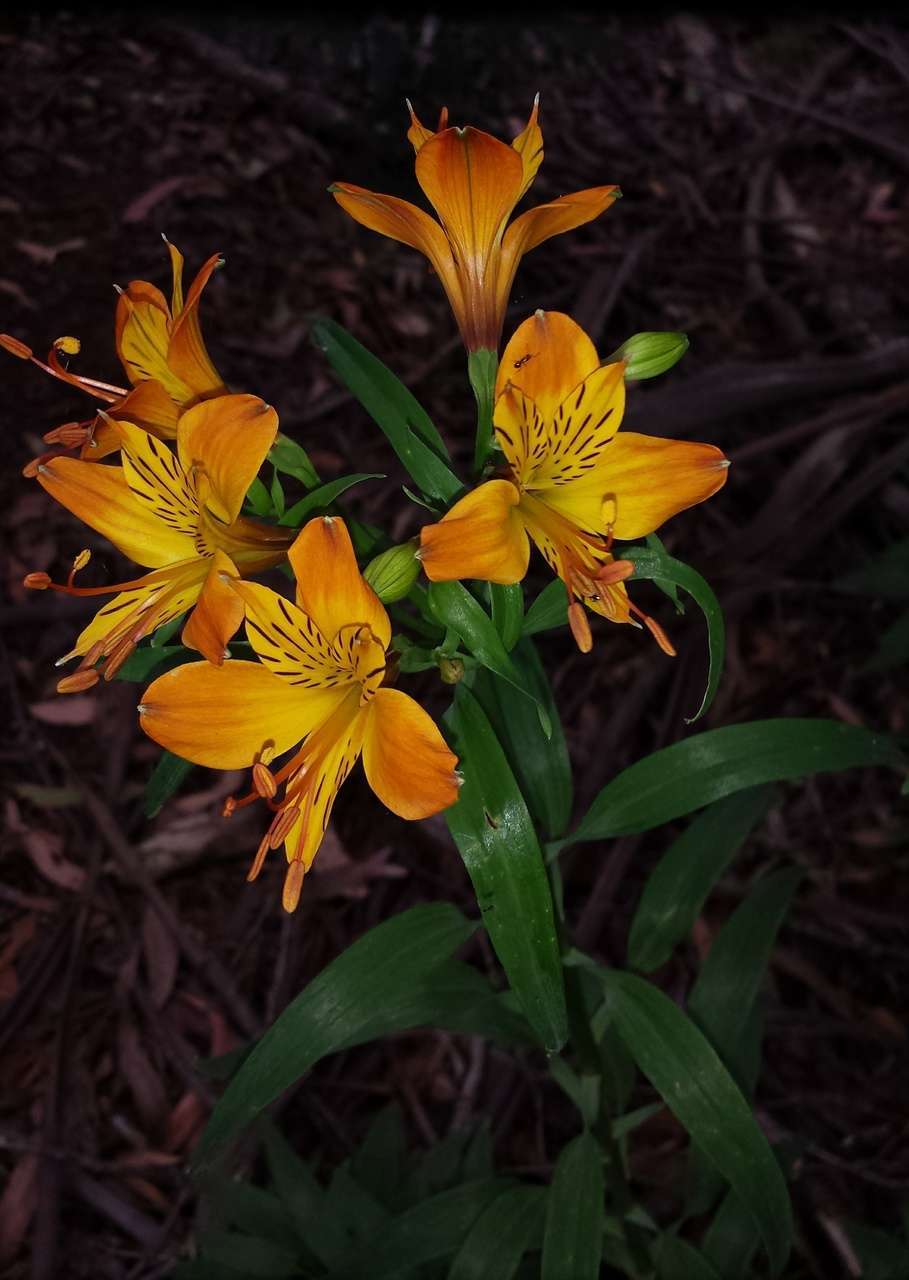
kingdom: Plantae
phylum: Tracheophyta
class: Liliopsida
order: Liliales
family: Alstroemeriaceae
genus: Alstroemeria
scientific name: Alstroemeria aurea
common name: Peruvian lily
